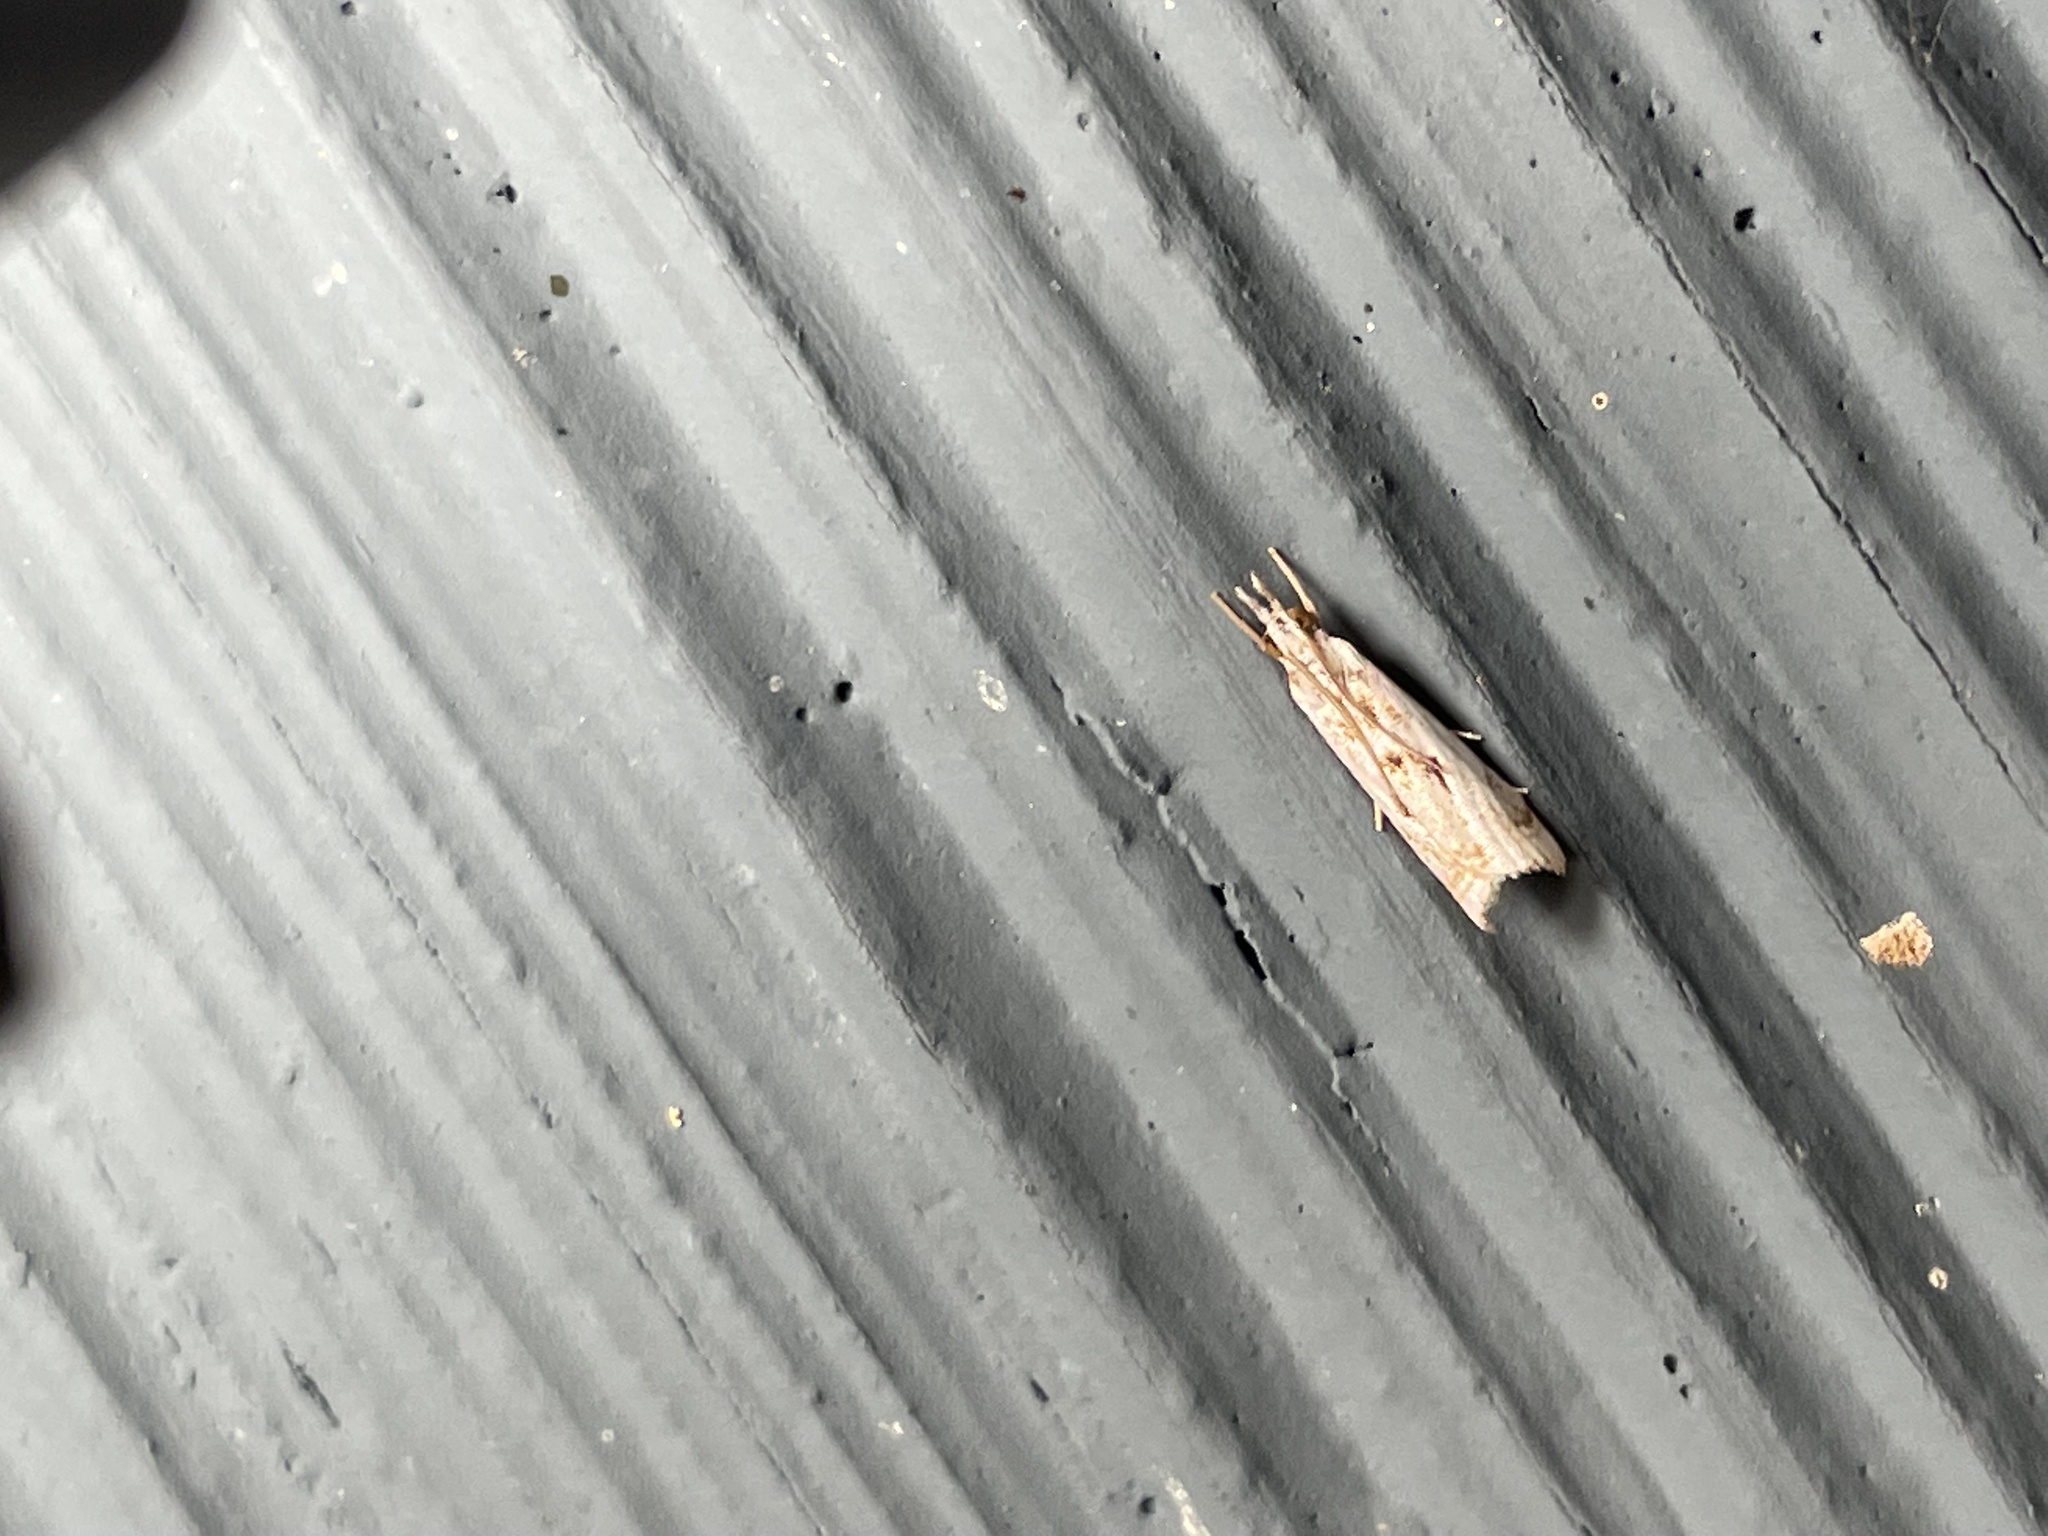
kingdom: Animalia
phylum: Arthropoda
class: Insecta
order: Lepidoptera
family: Crambidae
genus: Microcrambus
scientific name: Microcrambus elegans
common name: Elegant grass-veneer
